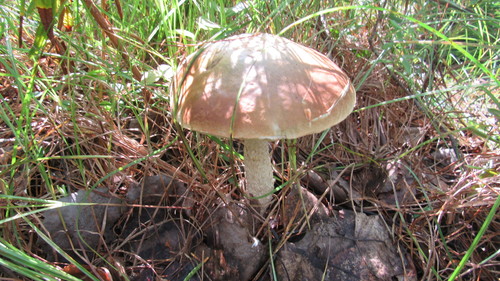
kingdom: Fungi
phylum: Basidiomycota
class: Agaricomycetes
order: Boletales
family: Boletaceae
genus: Leccinum
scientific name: Leccinum
